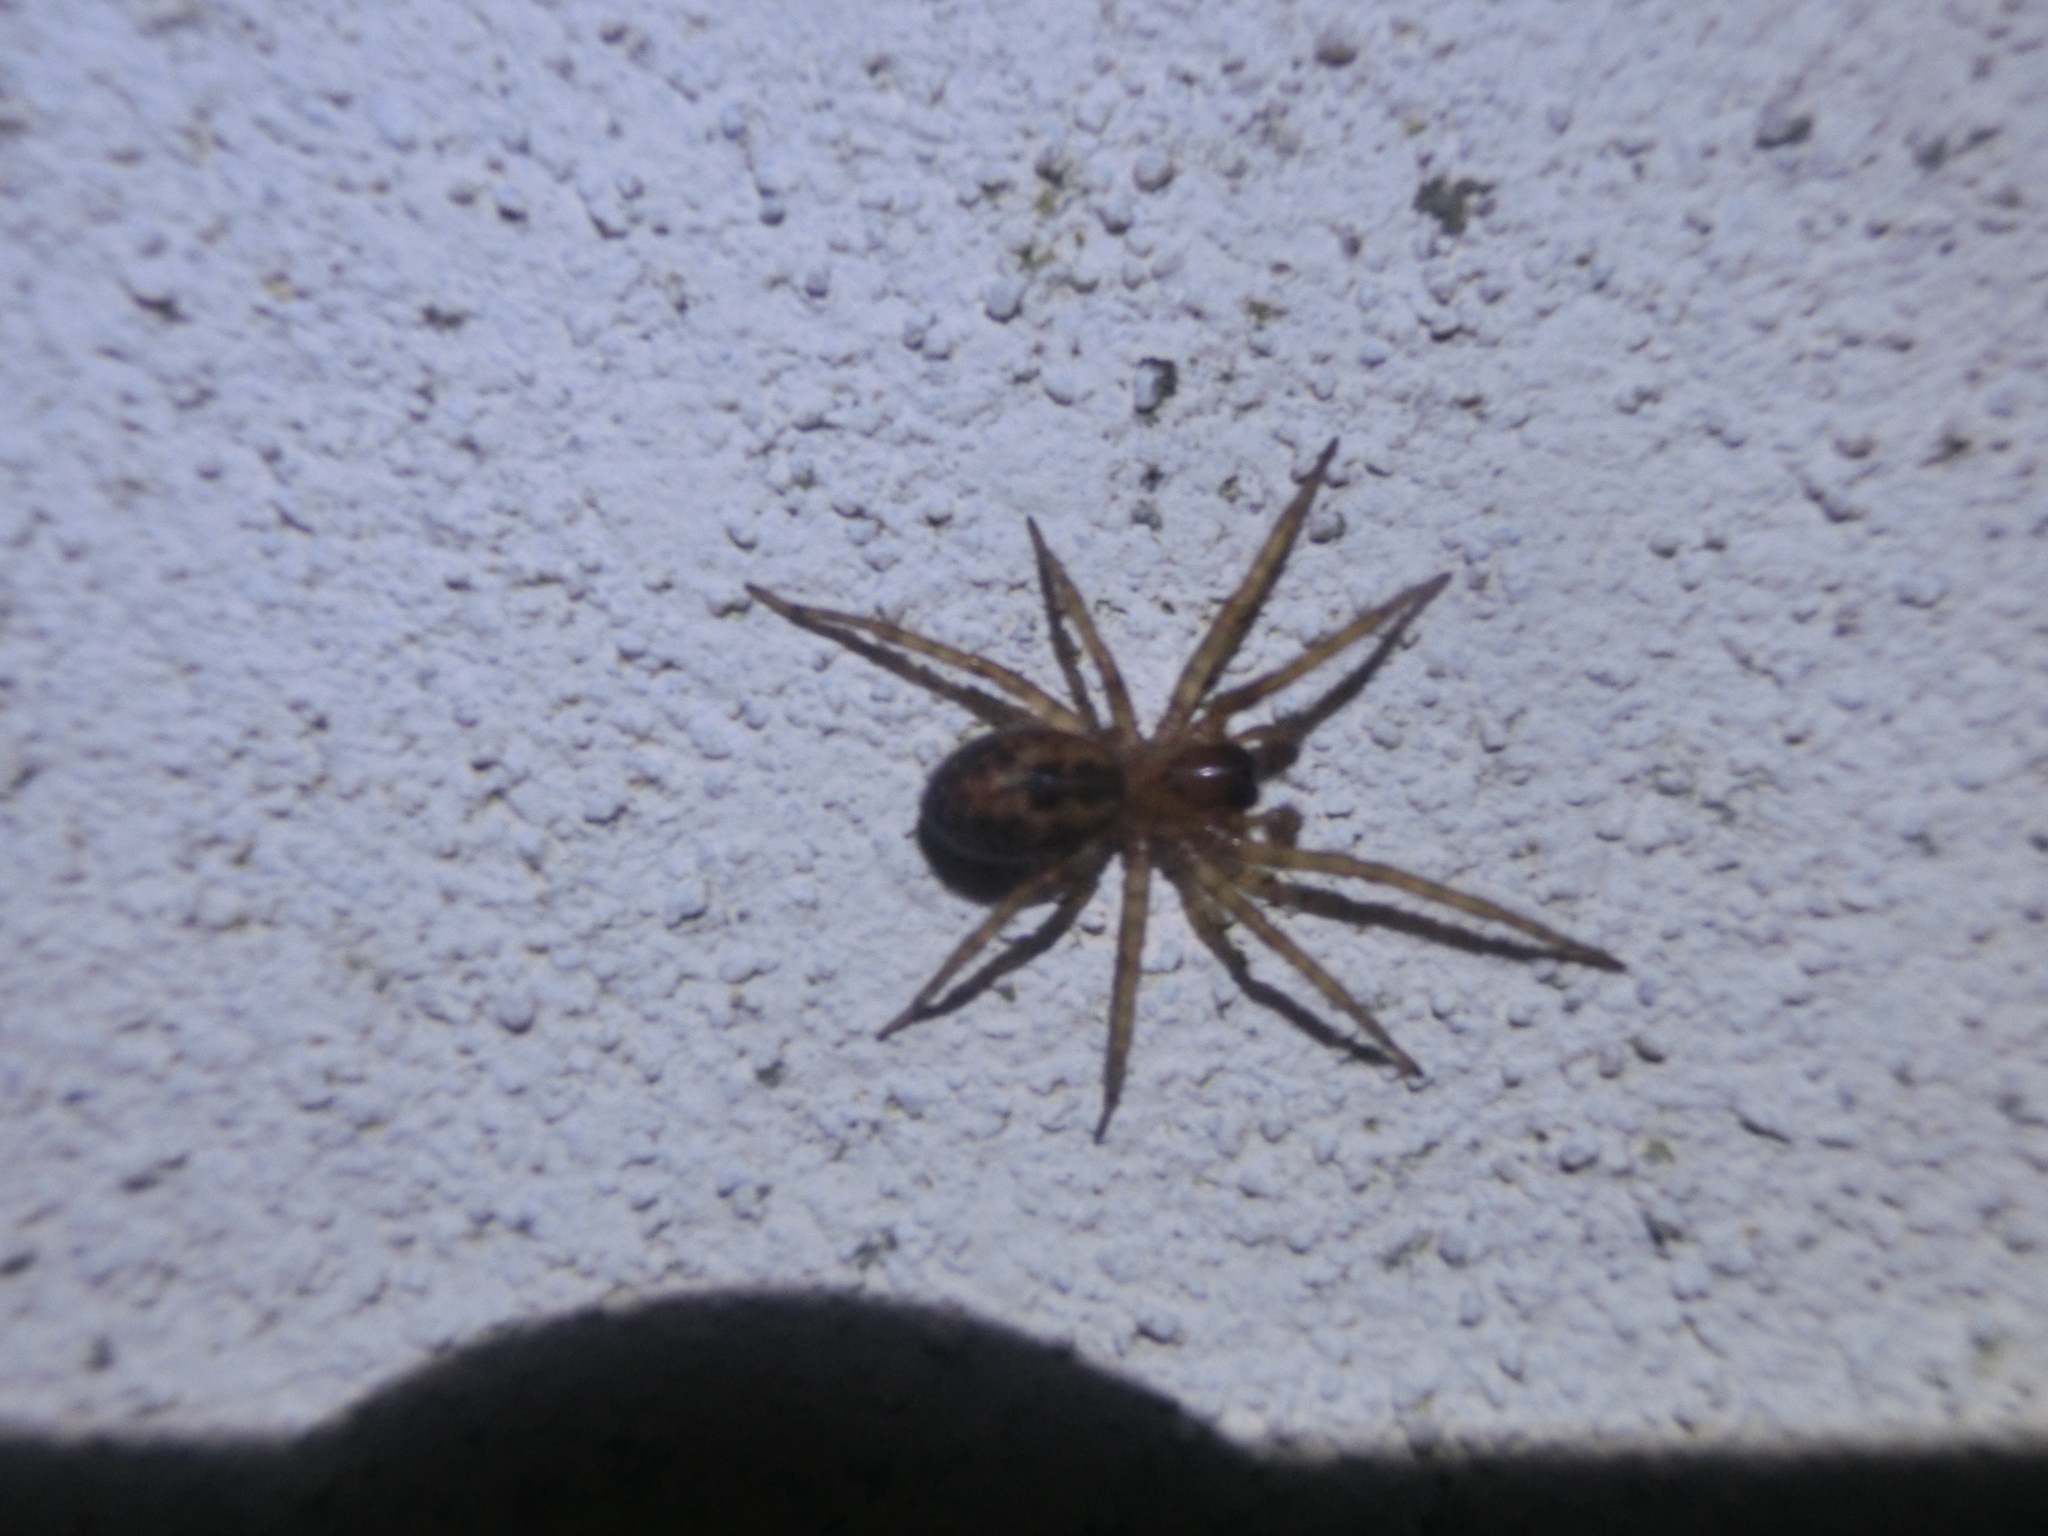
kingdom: Animalia
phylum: Arthropoda
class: Arachnida
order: Araneae
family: Amaurobiidae
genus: Amaurobius
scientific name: Amaurobius similis
